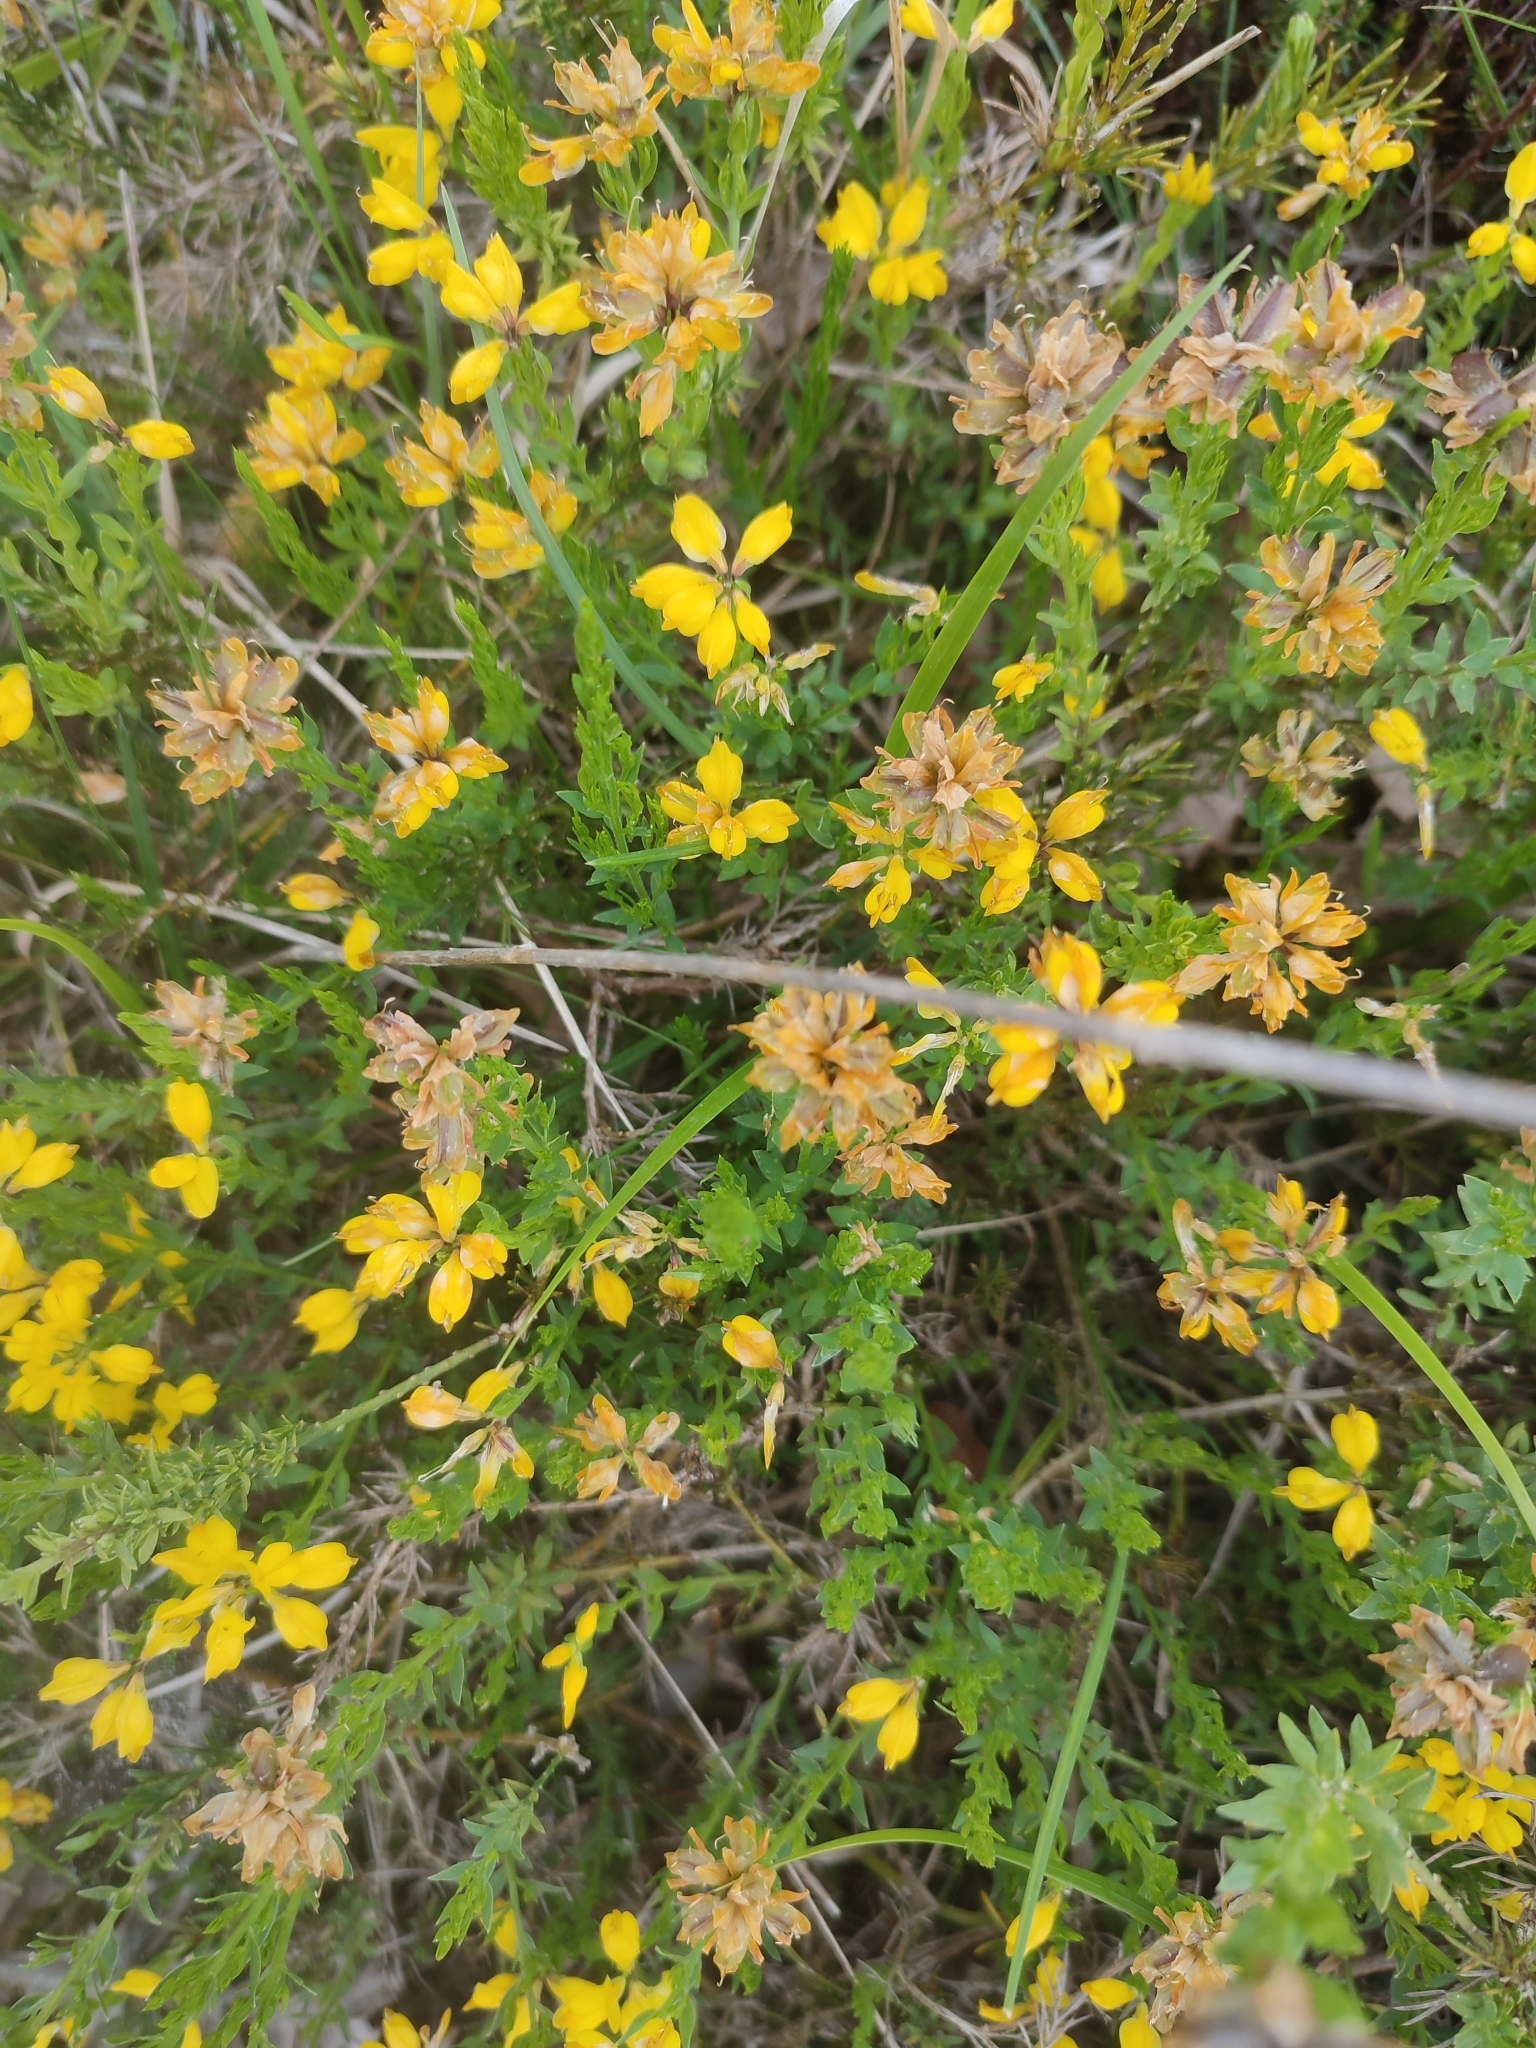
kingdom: Plantae
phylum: Tracheophyta
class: Magnoliopsida
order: Fabales
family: Fabaceae
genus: Genista
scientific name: Genista hispanica
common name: Spanish gorse
